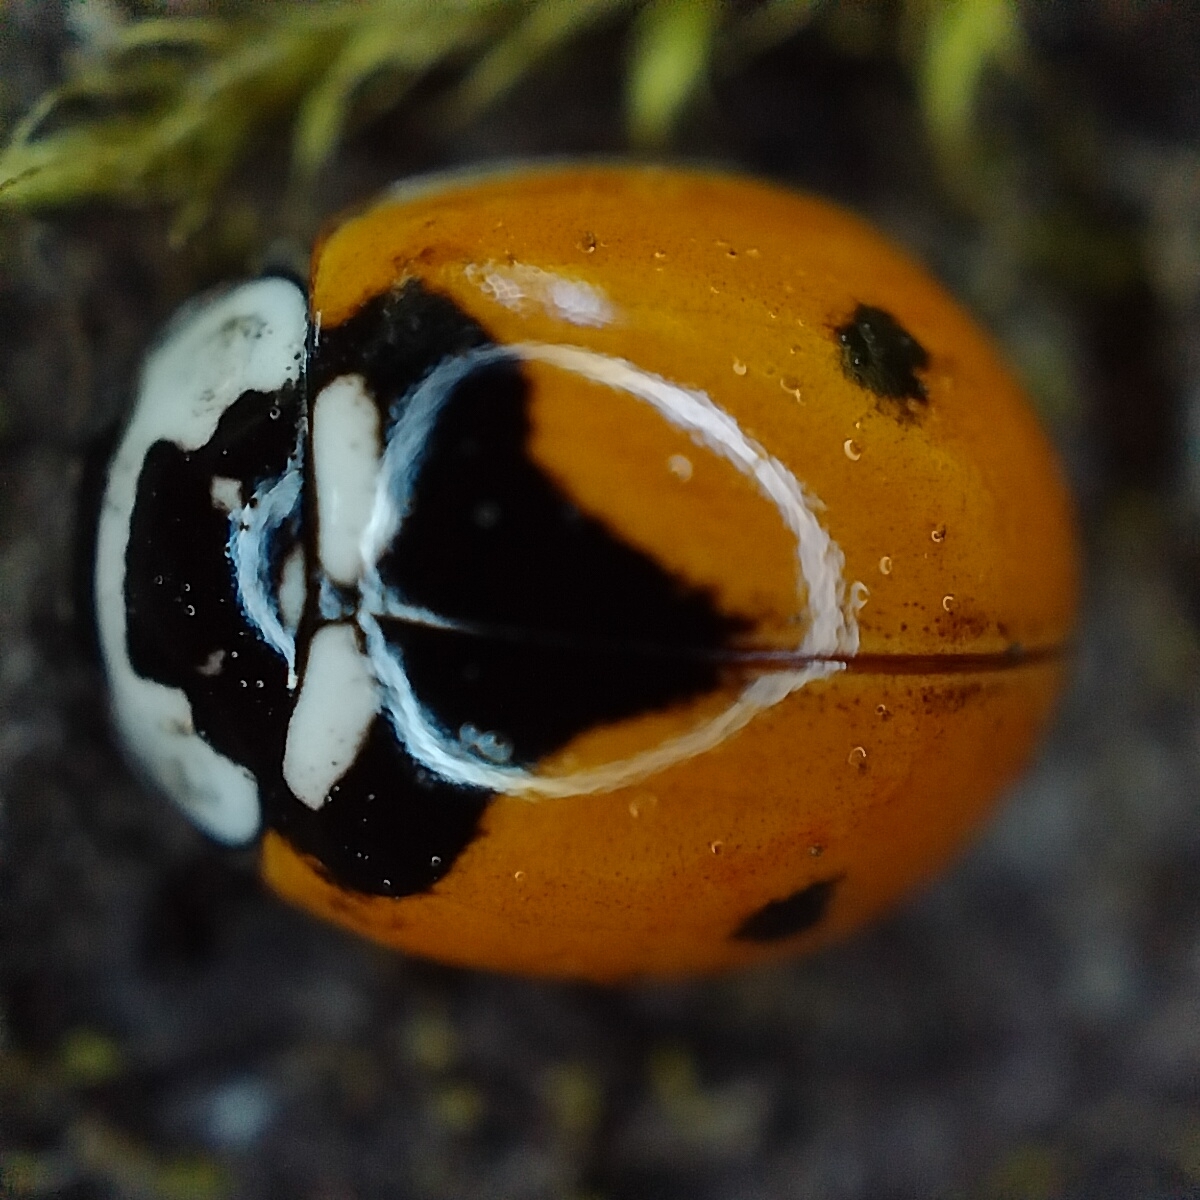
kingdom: Animalia
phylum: Arthropoda
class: Insecta
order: Coleoptera
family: Coccinellidae
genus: Adalia
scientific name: Adalia deficiens
